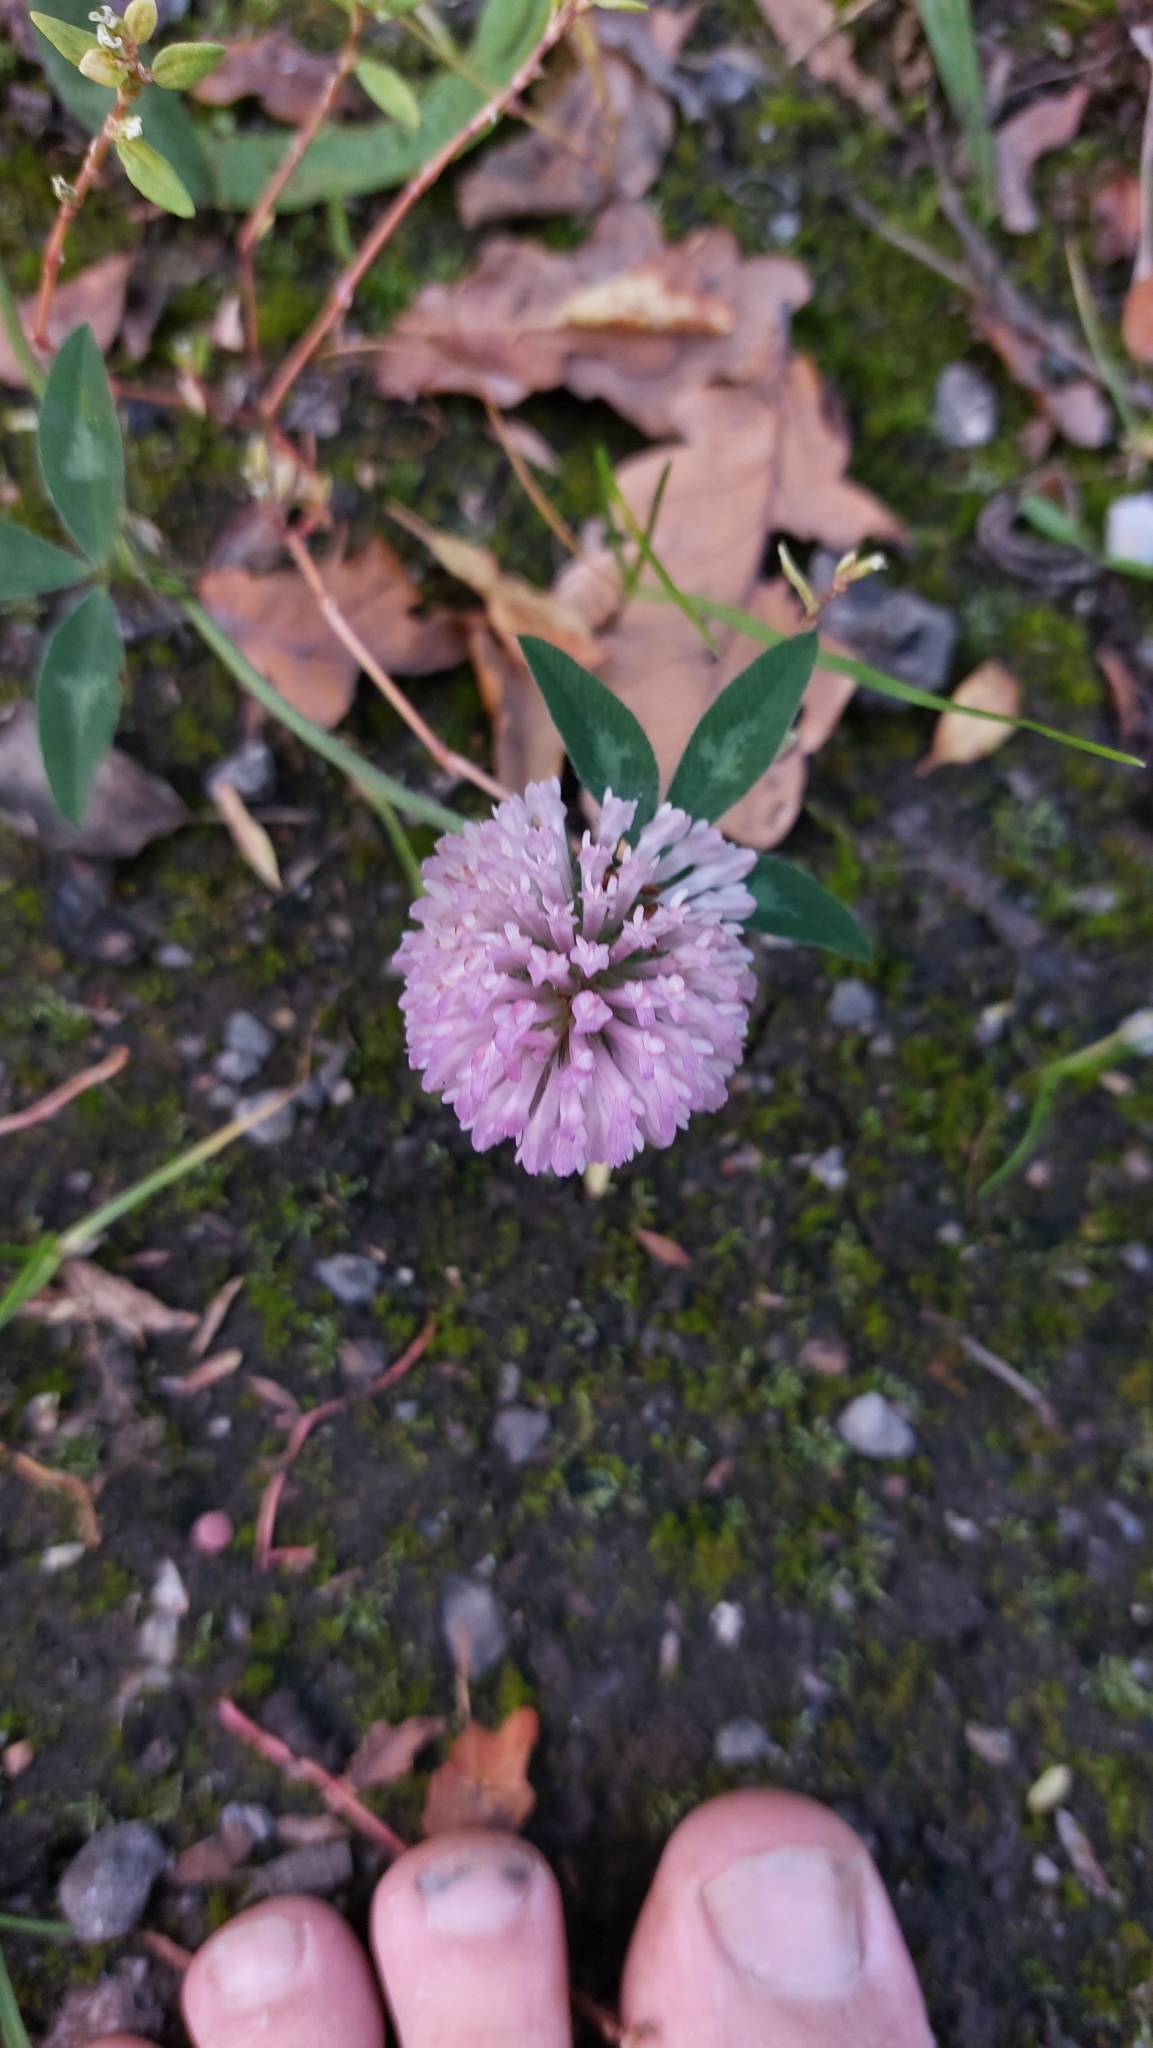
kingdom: Plantae
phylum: Tracheophyta
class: Magnoliopsida
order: Fabales
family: Fabaceae
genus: Trifolium
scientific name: Trifolium pratense
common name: Red clover
